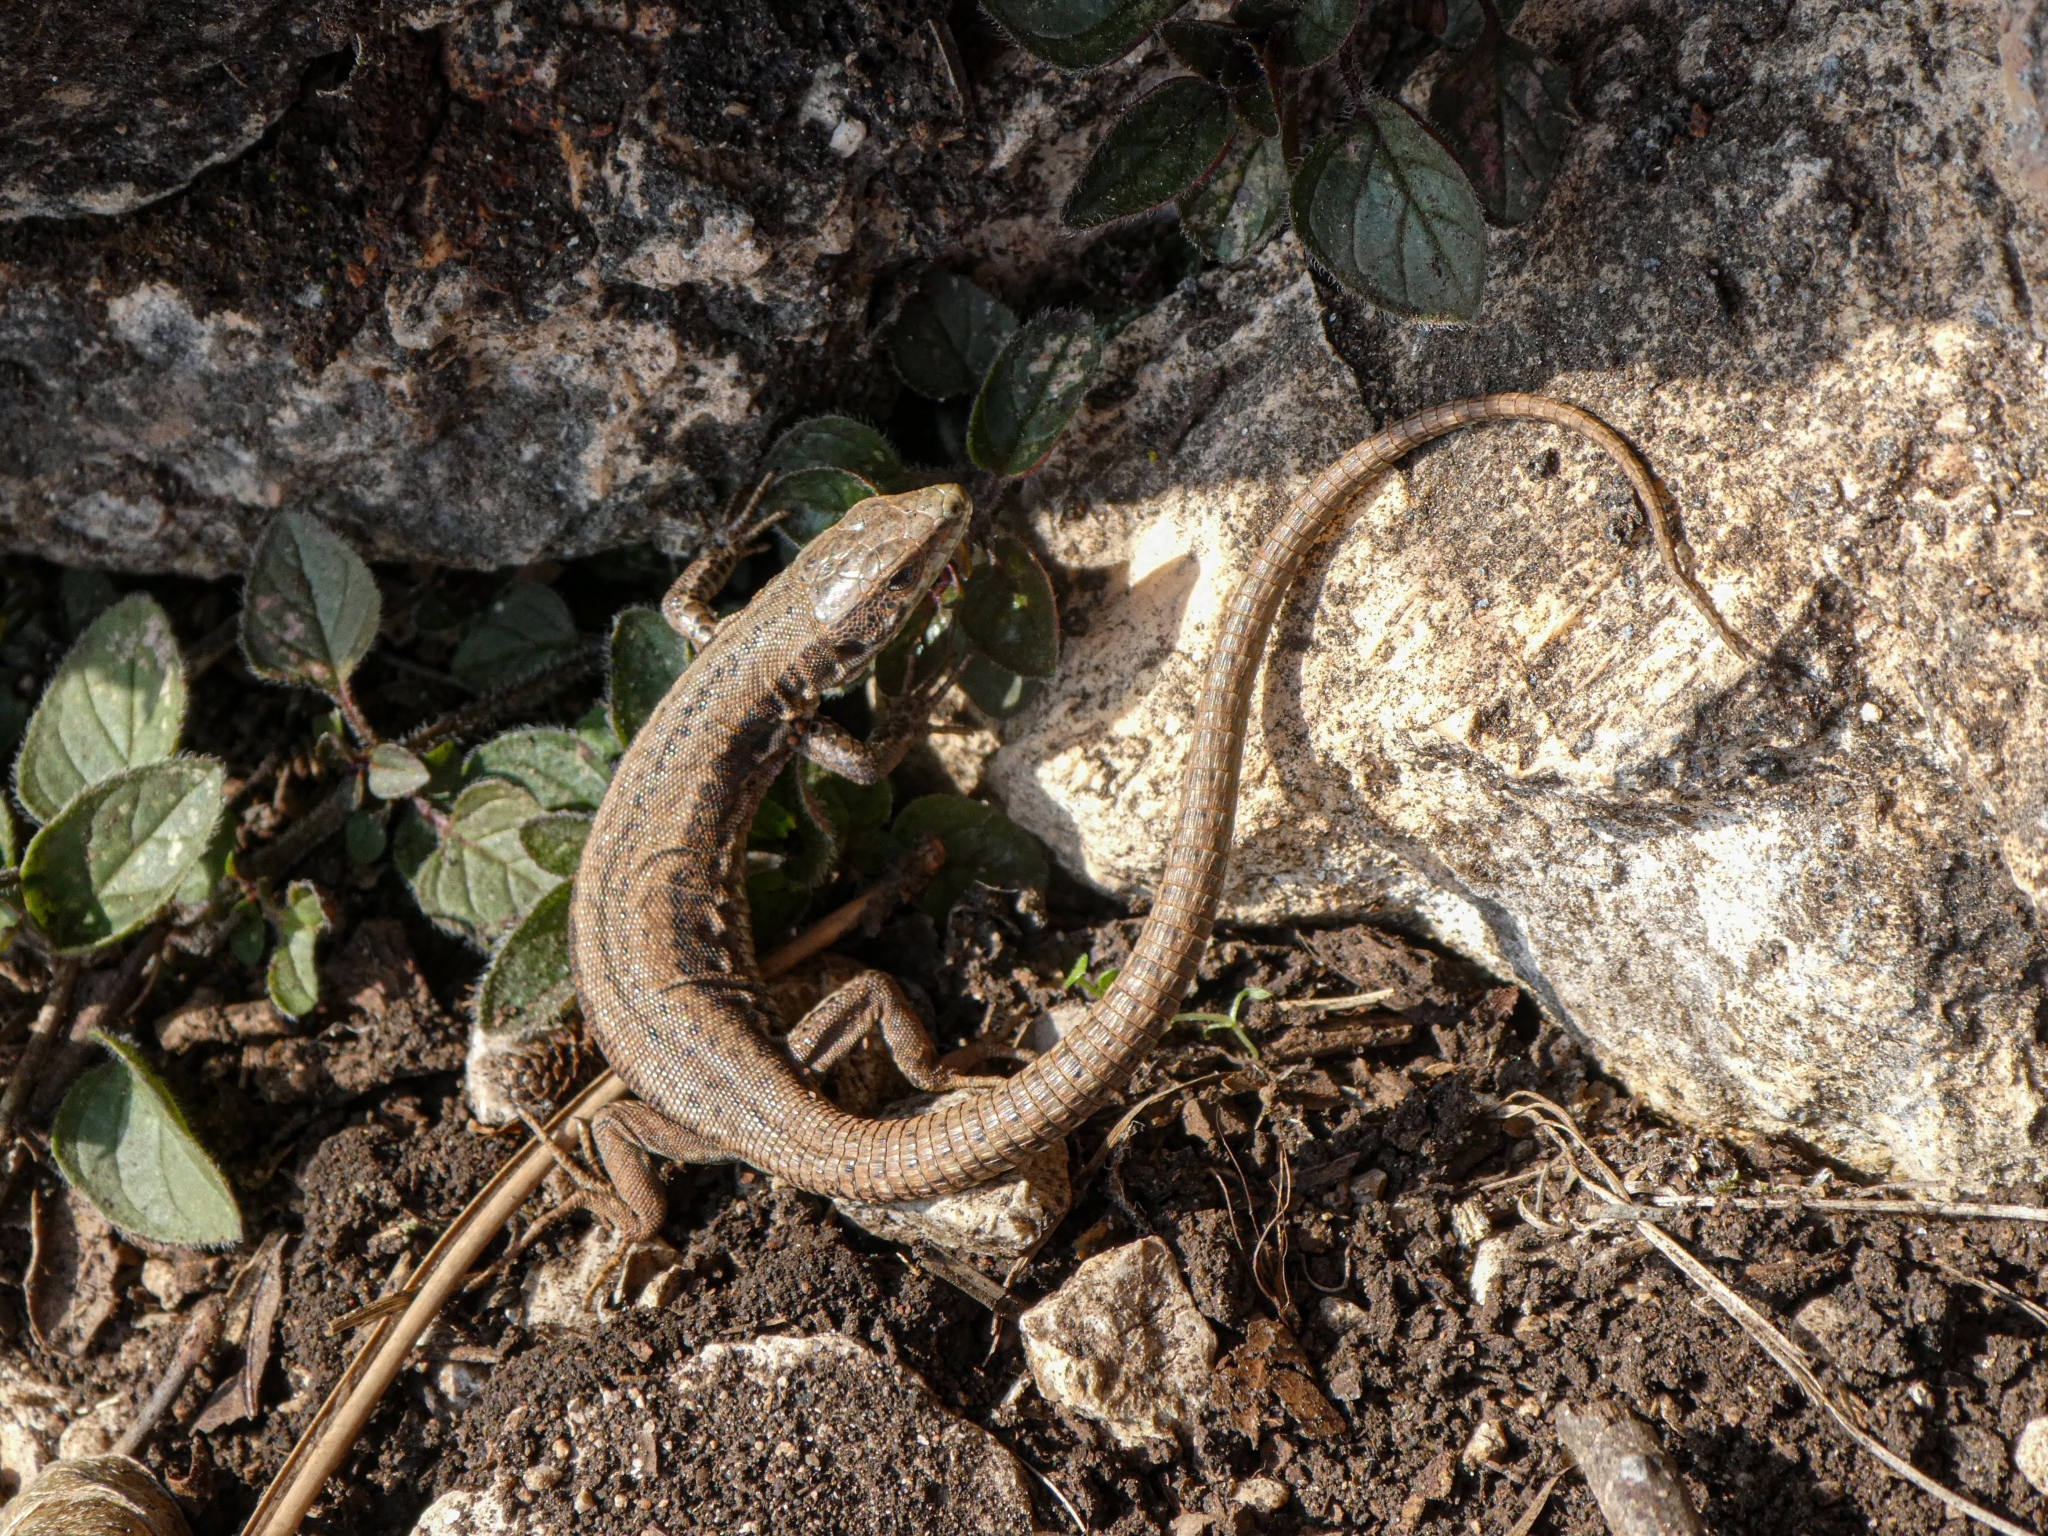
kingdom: Animalia
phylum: Chordata
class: Squamata
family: Lacertidae
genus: Podarcis
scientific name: Podarcis muralis
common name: Common wall lizard
